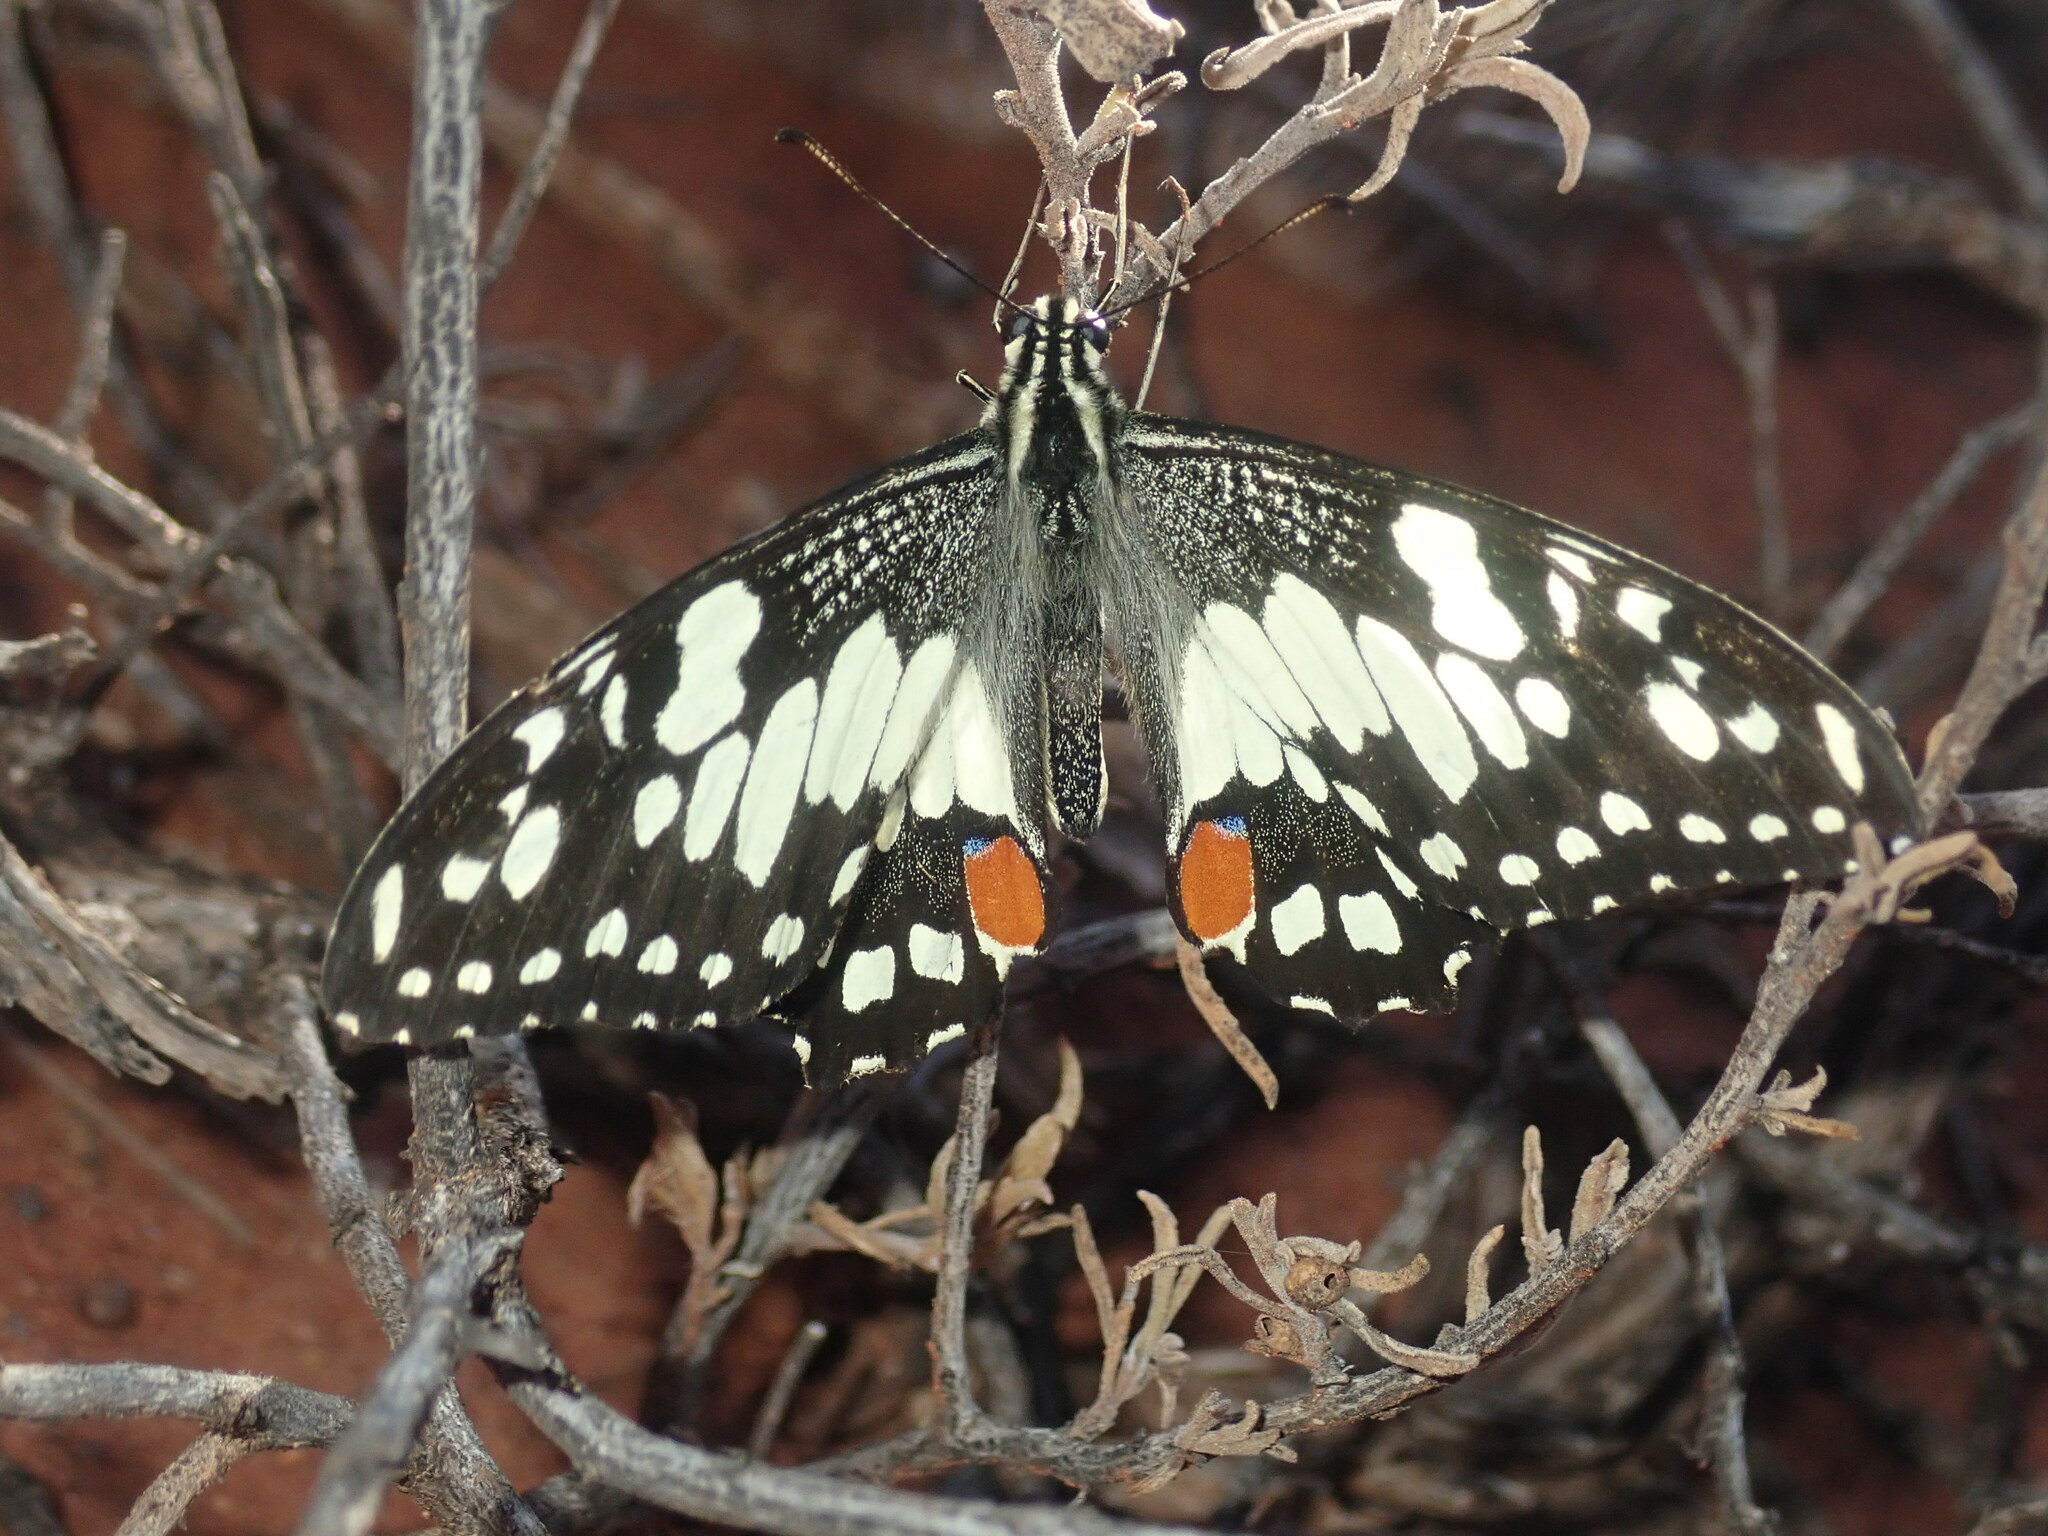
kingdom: Animalia
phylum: Arthropoda
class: Insecta
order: Lepidoptera
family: Papilionidae
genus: Papilio
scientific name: Papilio demoleus
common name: Lime butterfly
